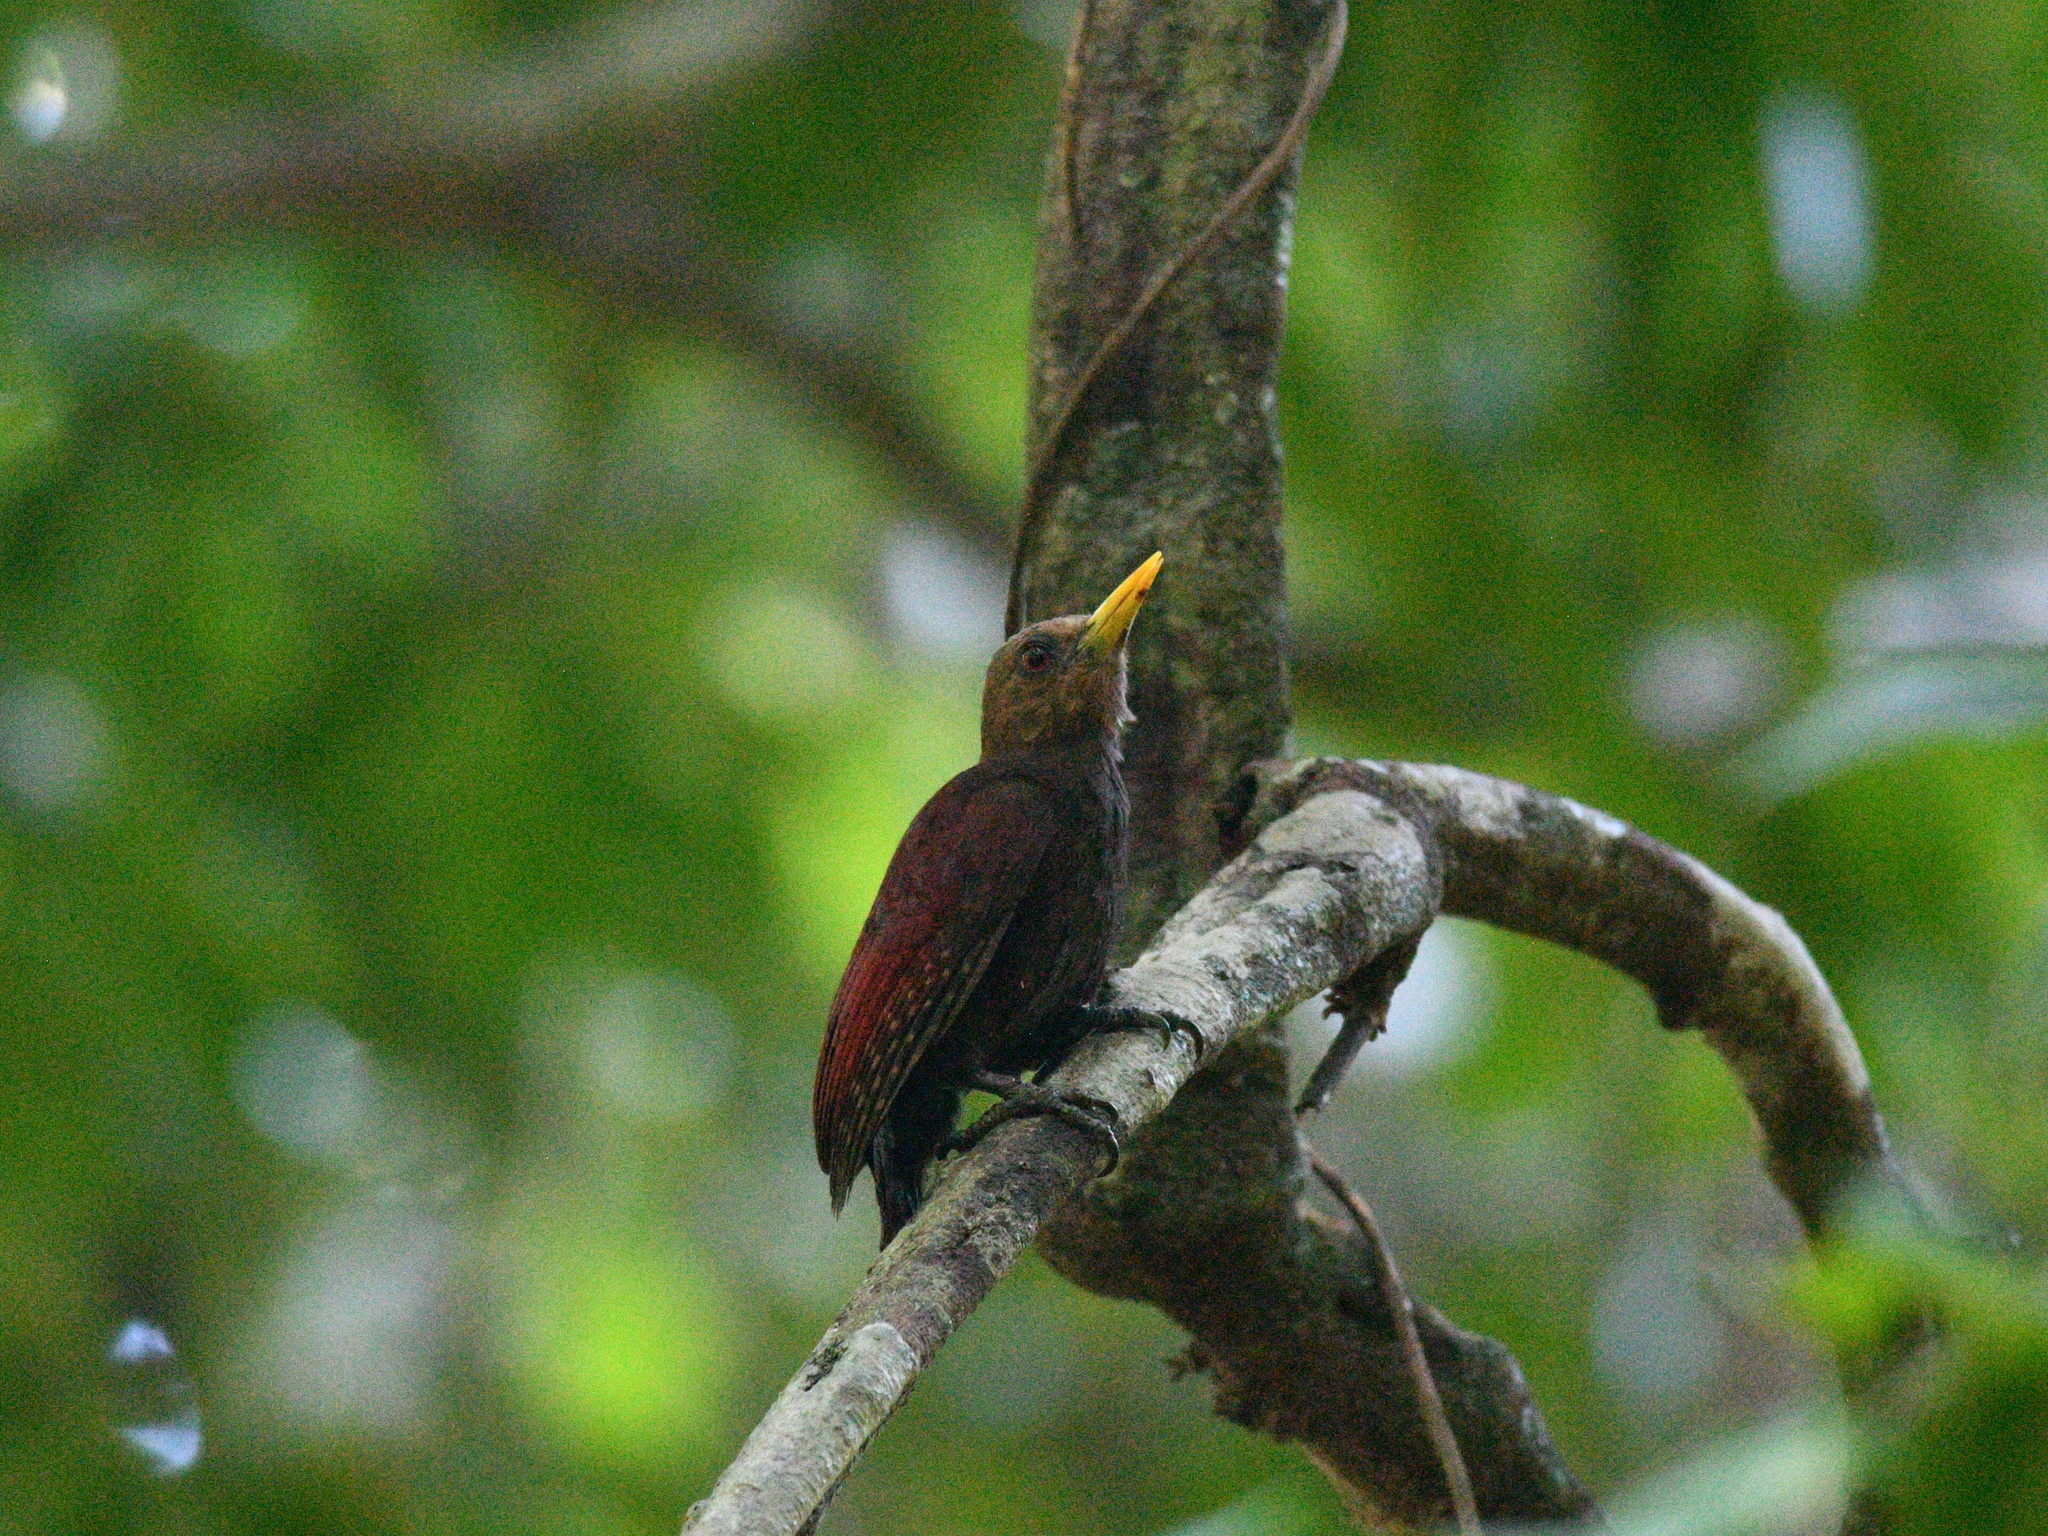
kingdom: Animalia
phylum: Chordata
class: Aves
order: Piciformes
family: Picidae
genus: Blythipicus
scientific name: Blythipicus rubiginosus
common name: Maroon woodpecker
